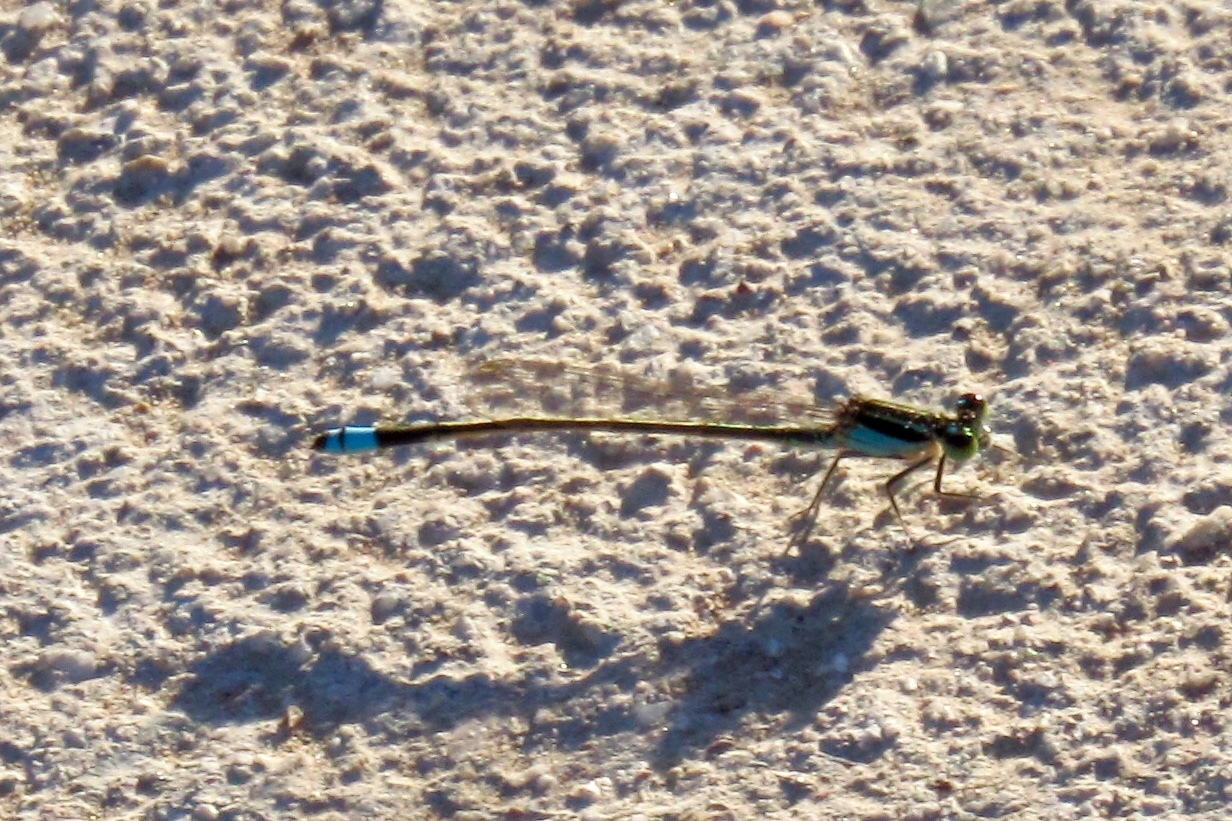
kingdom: Animalia
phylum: Arthropoda
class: Insecta
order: Odonata
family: Coenagrionidae
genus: Ischnura
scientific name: Ischnura ramburii
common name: Rambur's forktail
